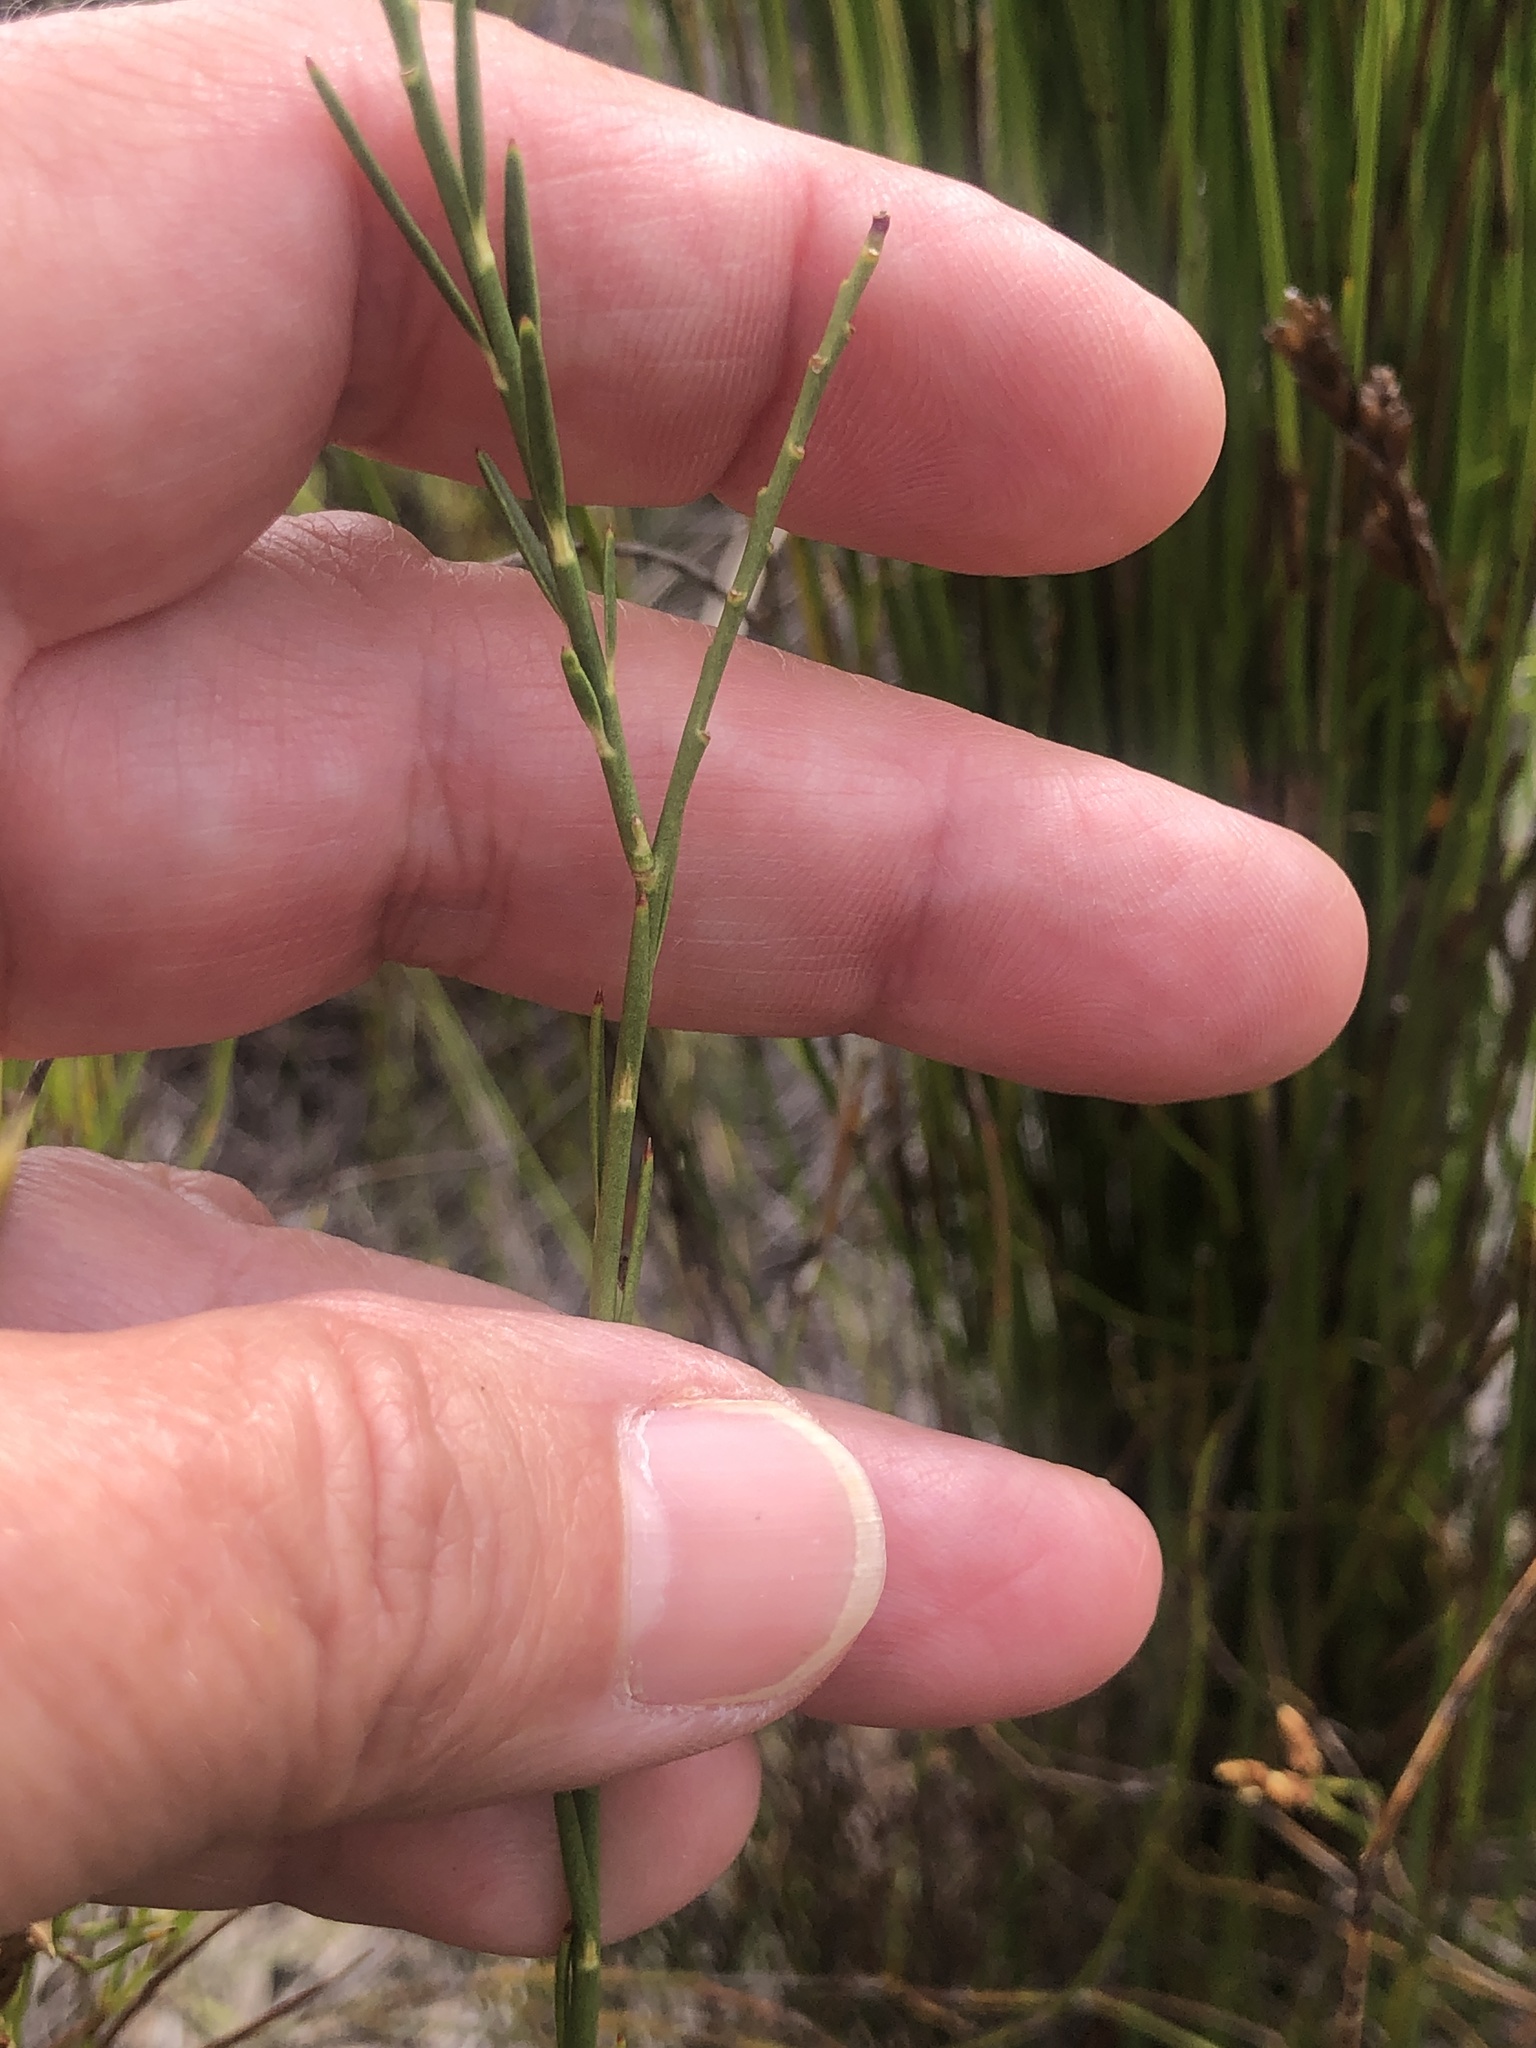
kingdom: Plantae
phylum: Tracheophyta
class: Magnoliopsida
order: Fabales
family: Polygalaceae
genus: Polygala
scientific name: Polygala garcini
